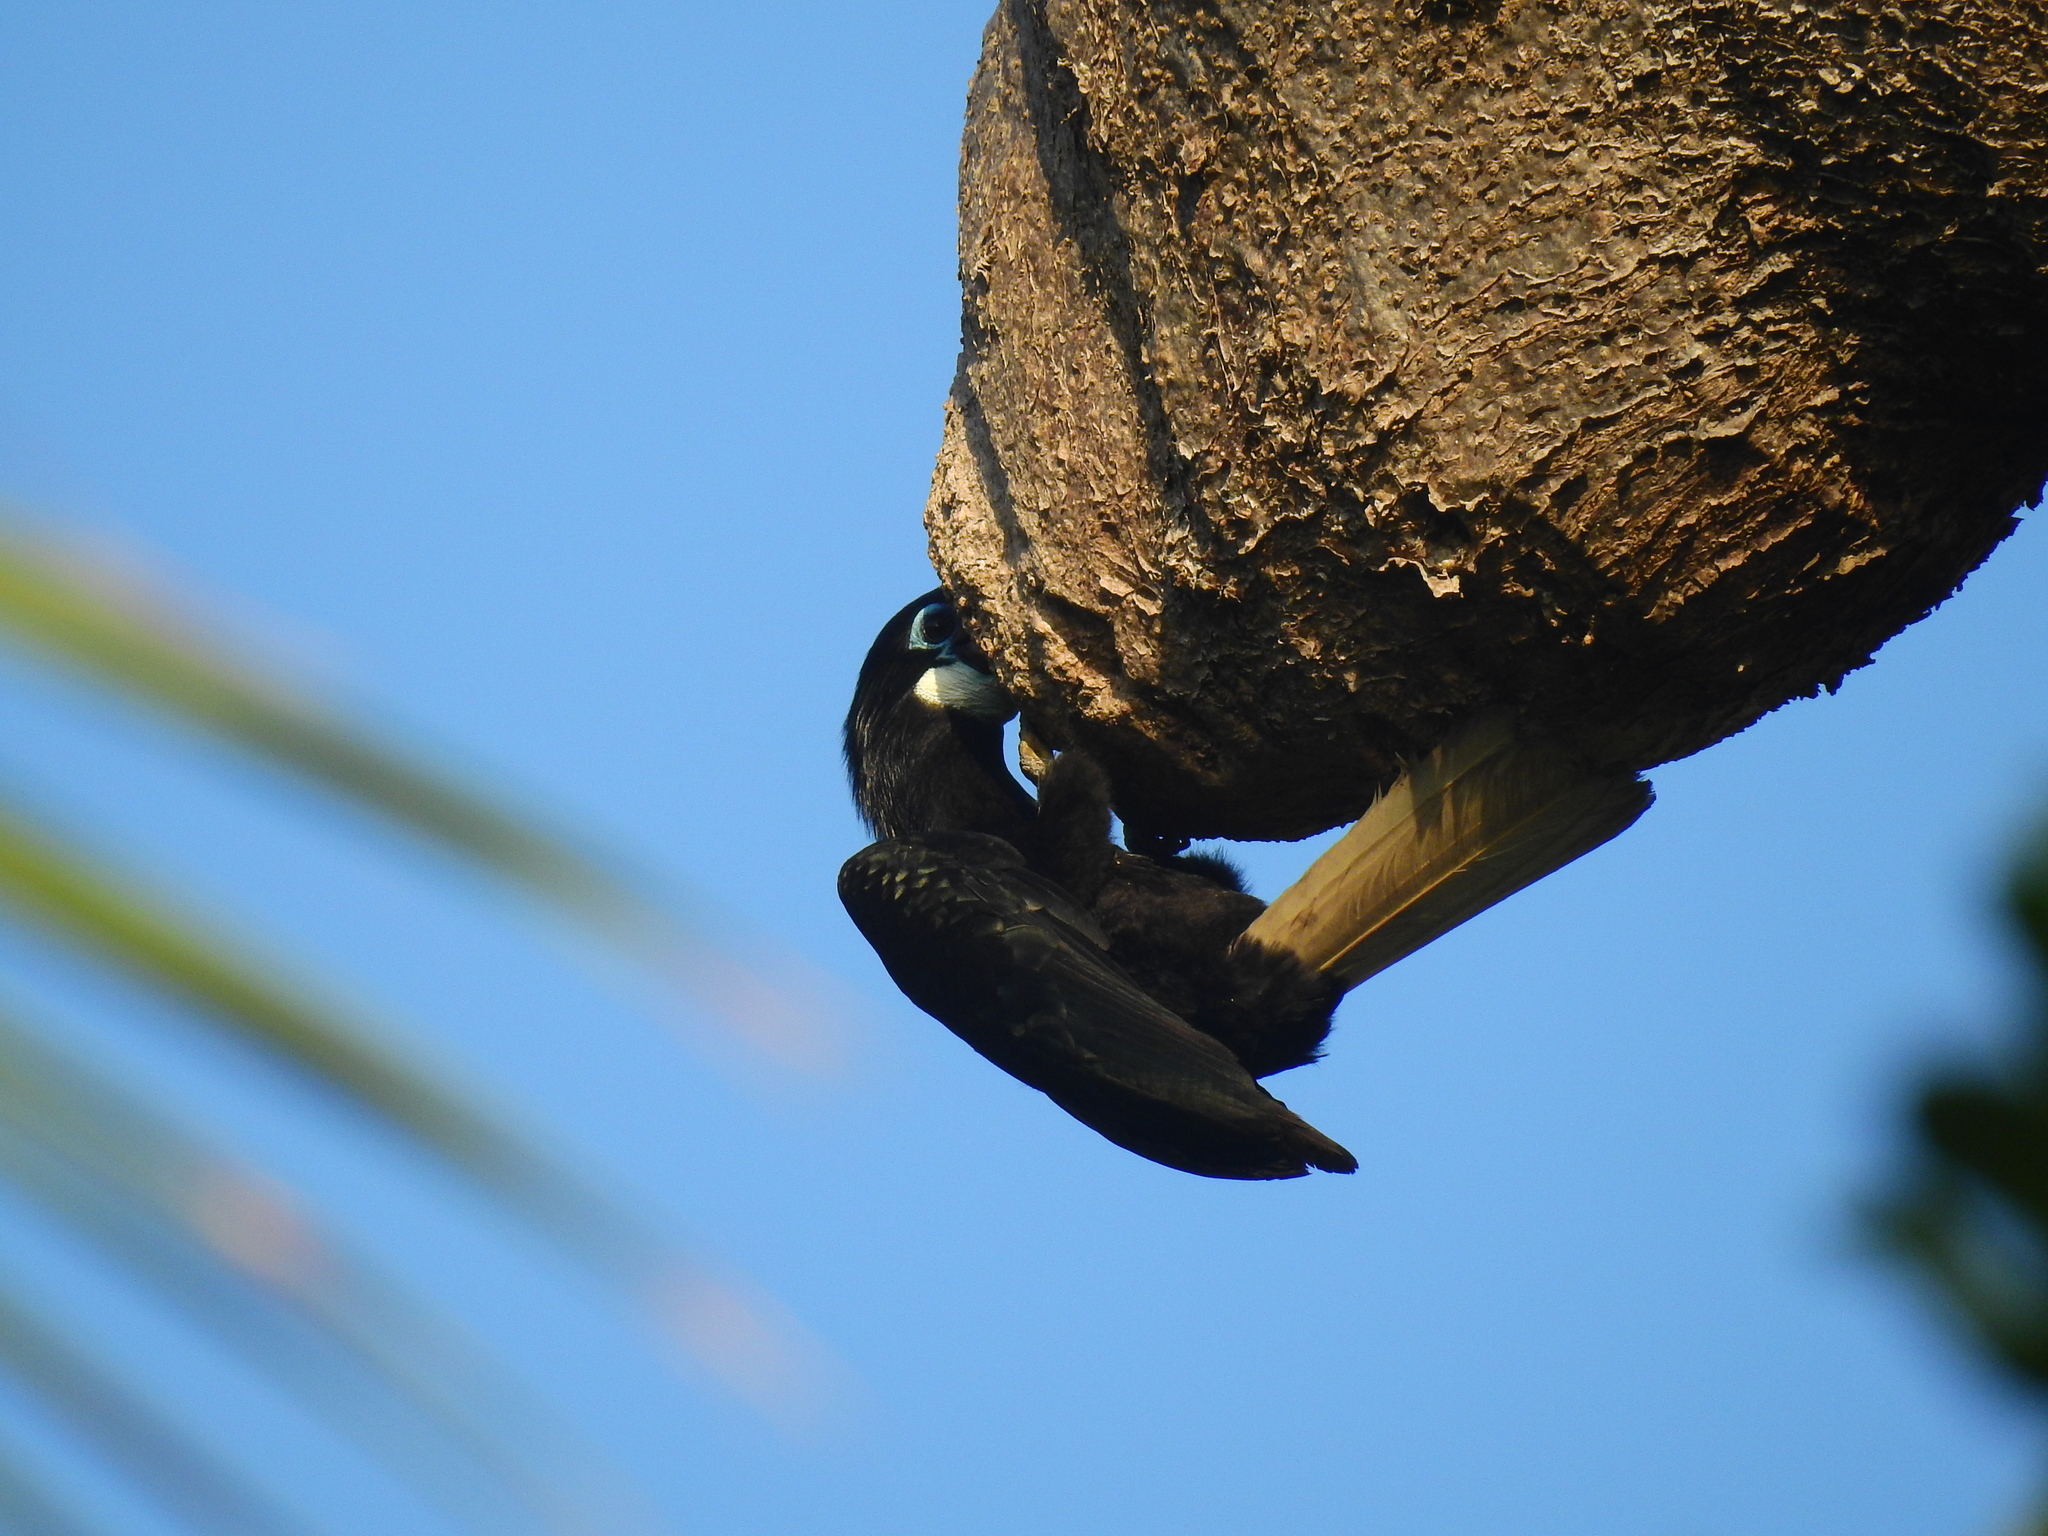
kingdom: Animalia
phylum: Chordata
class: Aves
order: Bucerotiformes
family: Bucerotidae
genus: Rhyticeros
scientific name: Rhyticeros narcondami
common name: Narcondam hornbill
